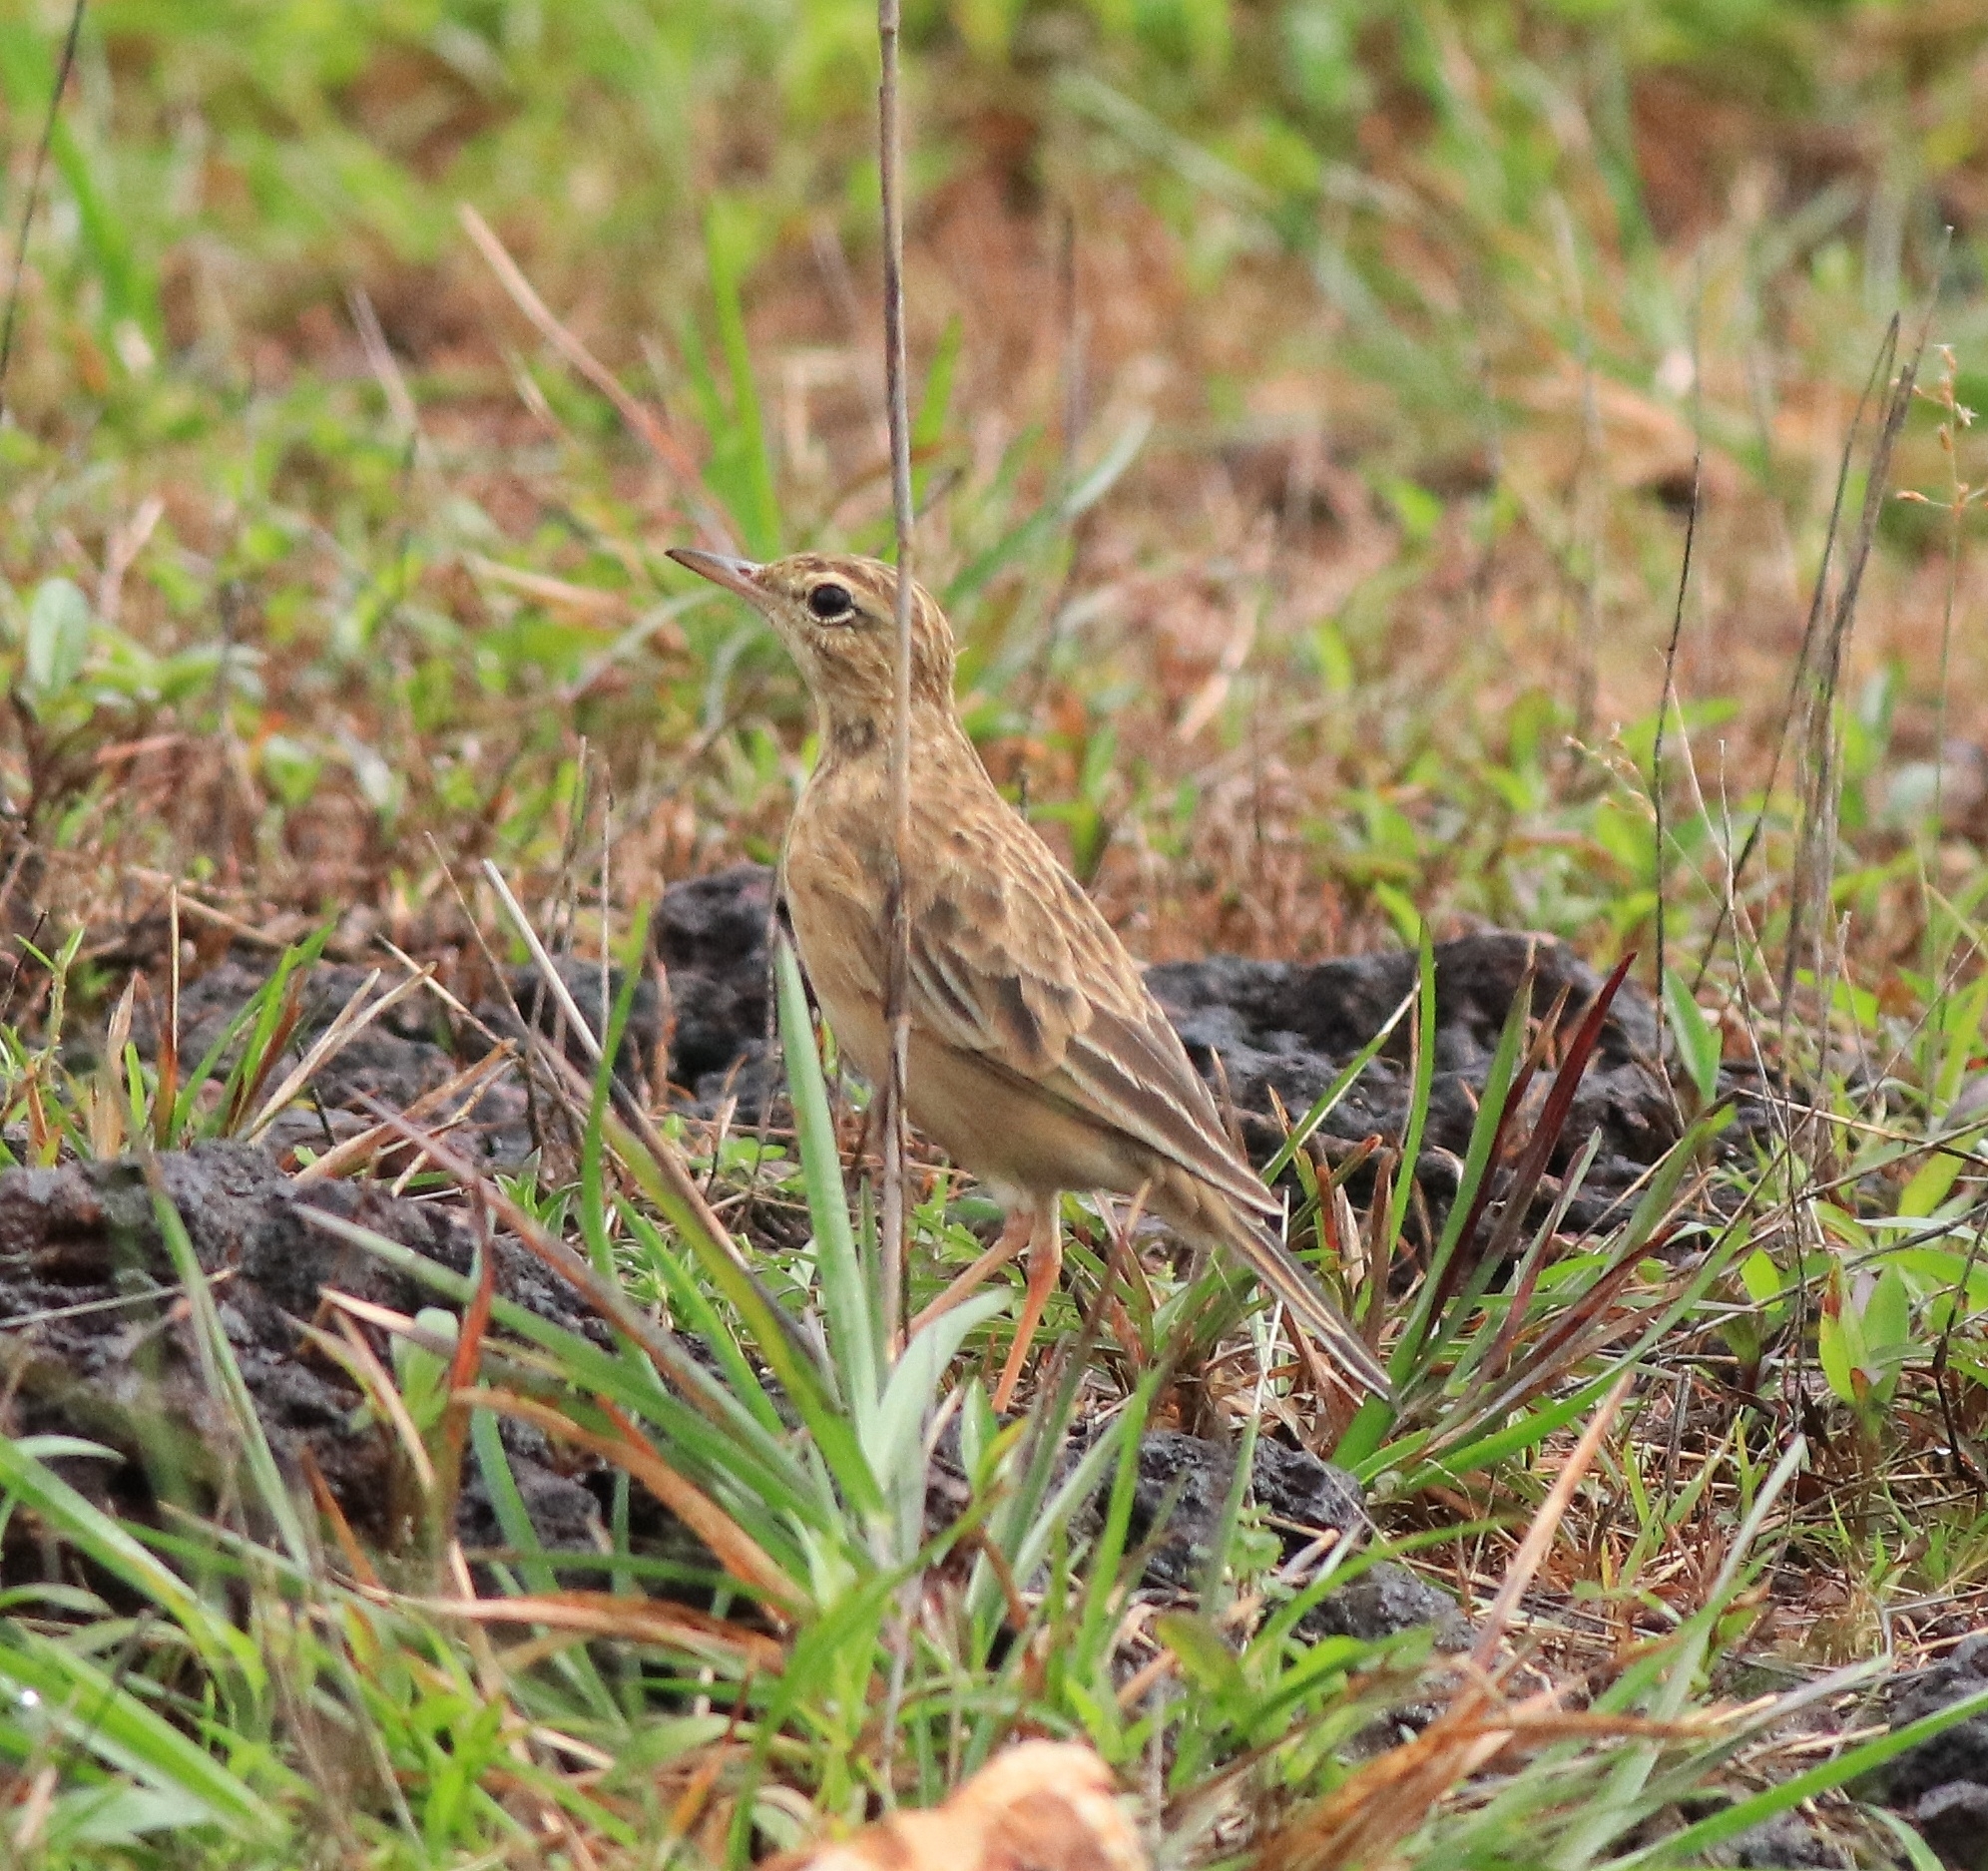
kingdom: Animalia
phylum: Chordata
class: Aves
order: Passeriformes
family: Motacillidae
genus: Anthus
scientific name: Anthus rufulus
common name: Paddyfield pipit
